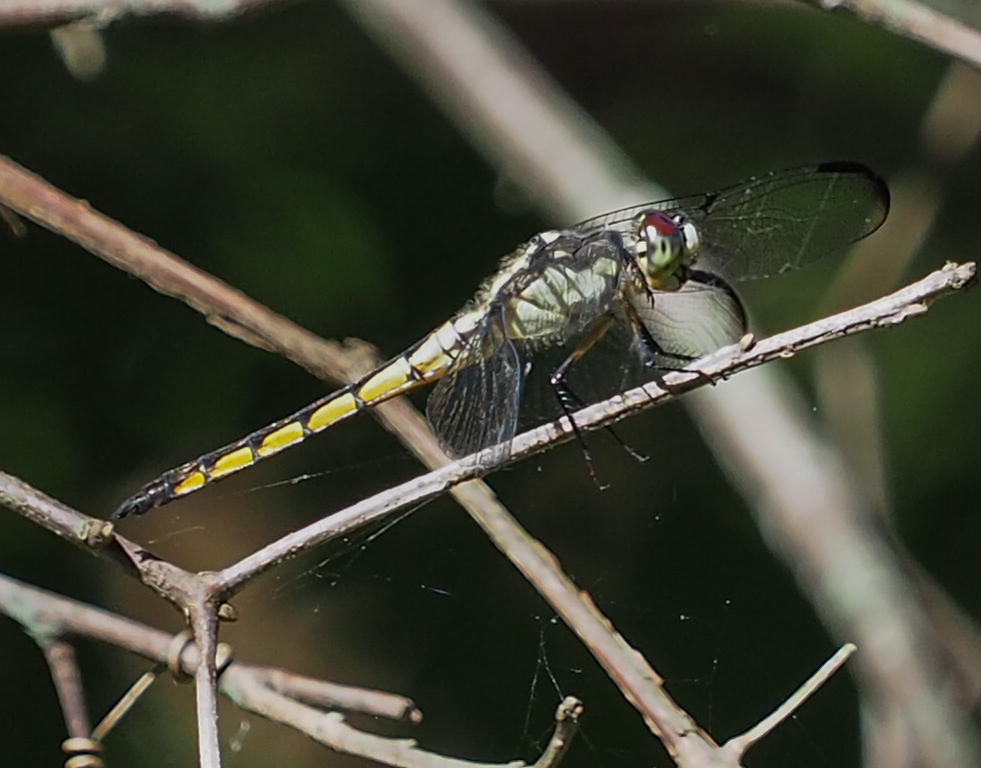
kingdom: Animalia
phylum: Arthropoda
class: Insecta
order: Odonata
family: Libellulidae
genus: Libellula
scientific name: Libellula vibrans
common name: Great blue skimmer
